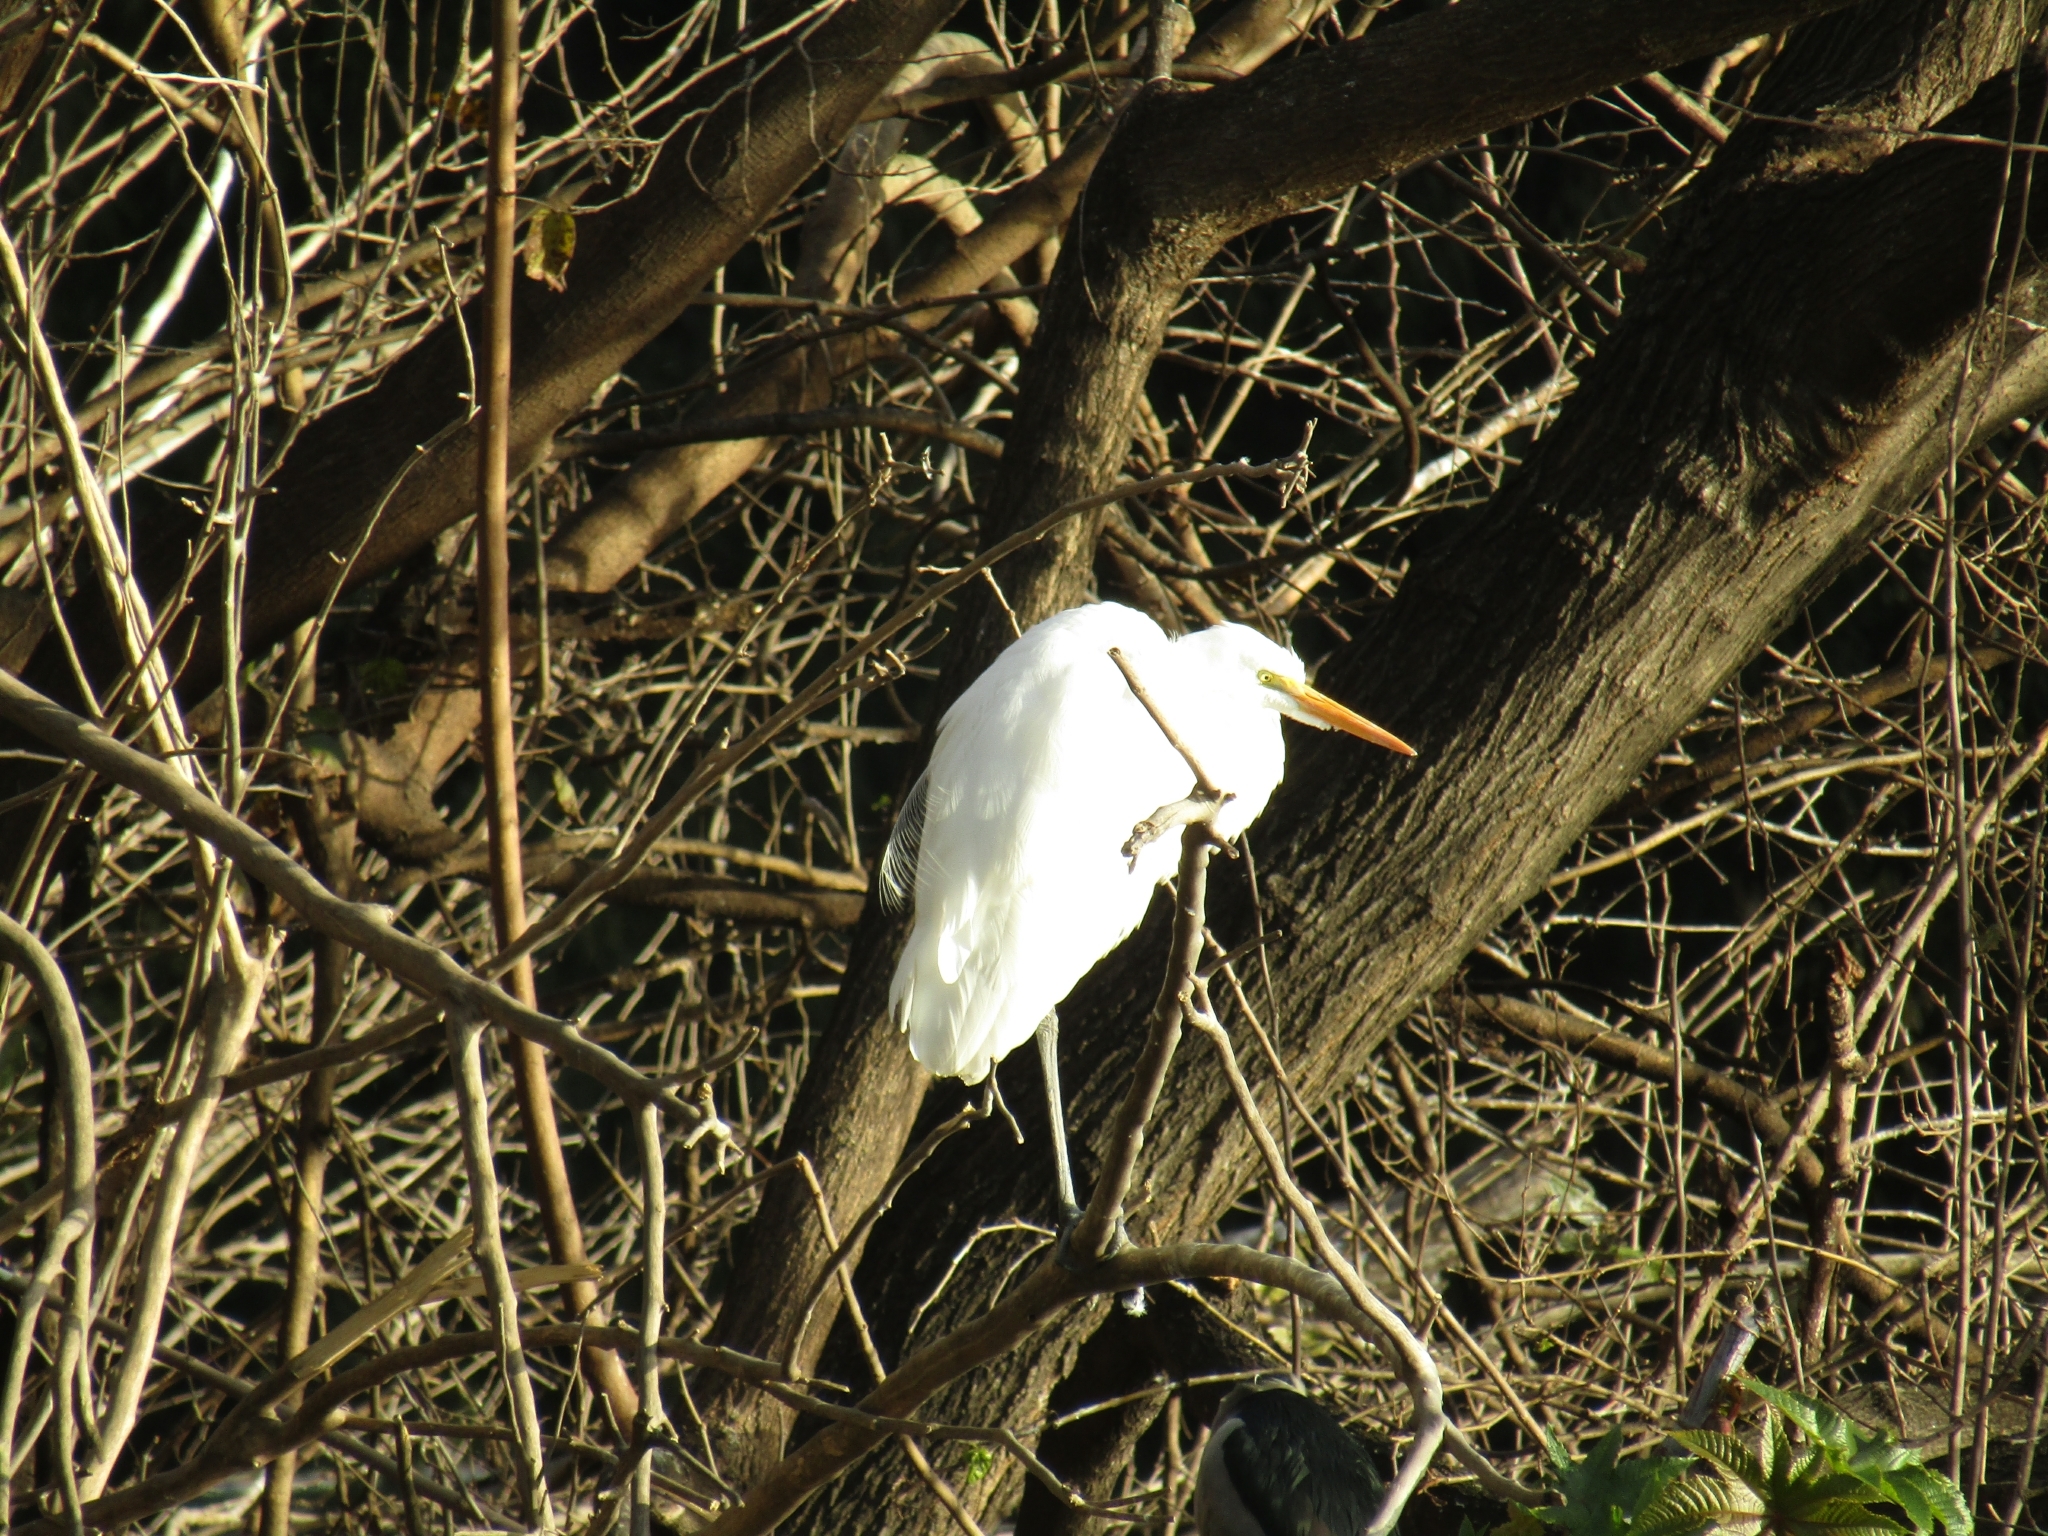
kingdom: Animalia
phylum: Chordata
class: Aves
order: Pelecaniformes
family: Ardeidae
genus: Ardea
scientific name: Ardea alba
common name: Great egret
